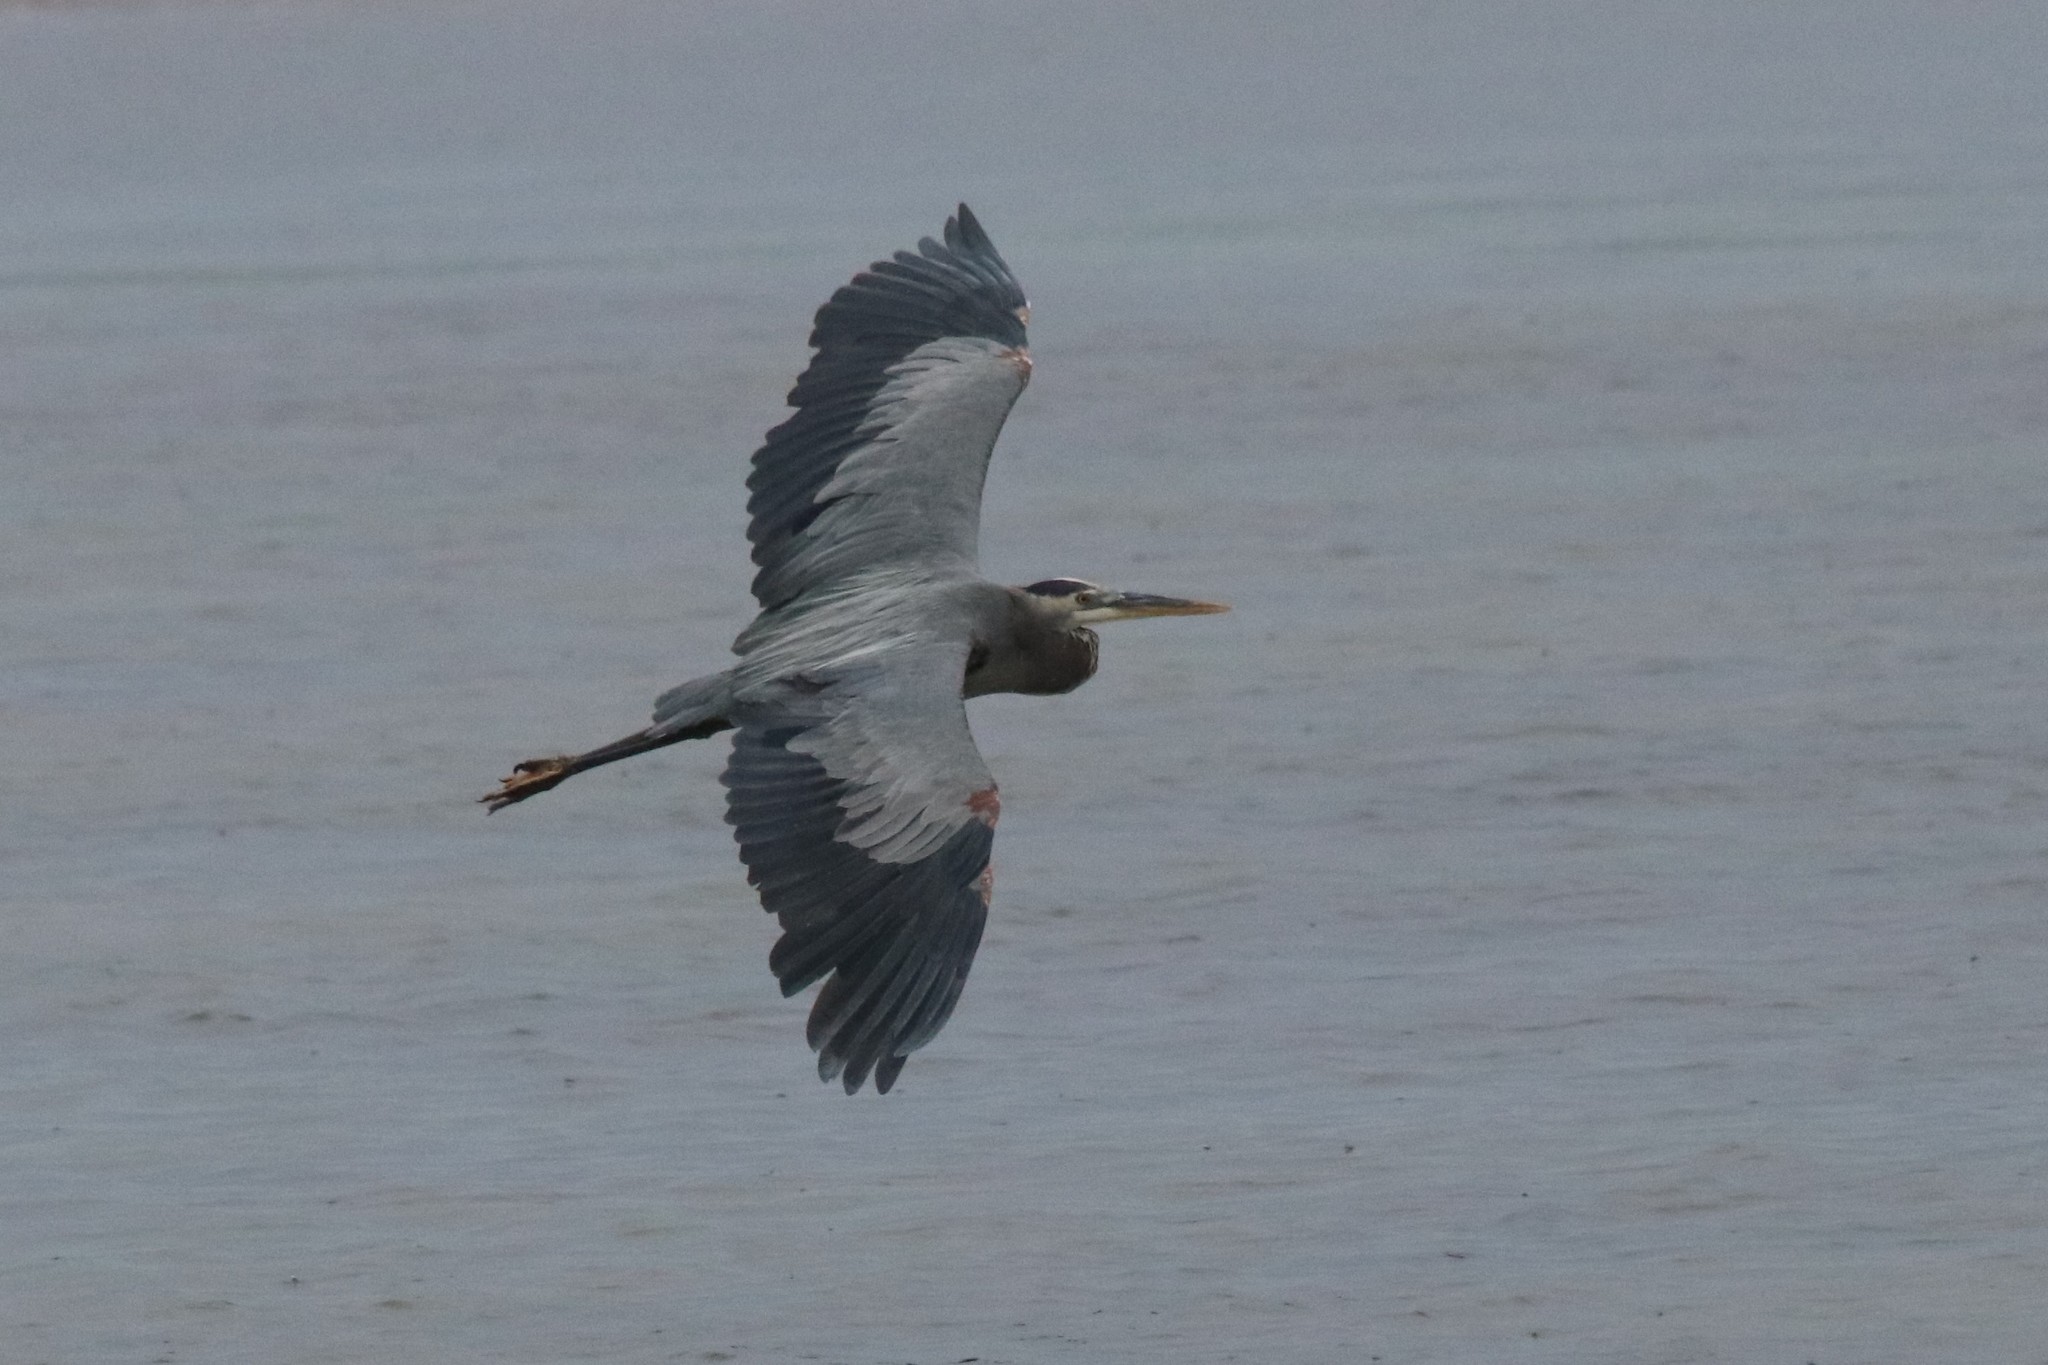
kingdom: Animalia
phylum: Chordata
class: Aves
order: Pelecaniformes
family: Ardeidae
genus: Ardea
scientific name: Ardea herodias
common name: Great blue heron
